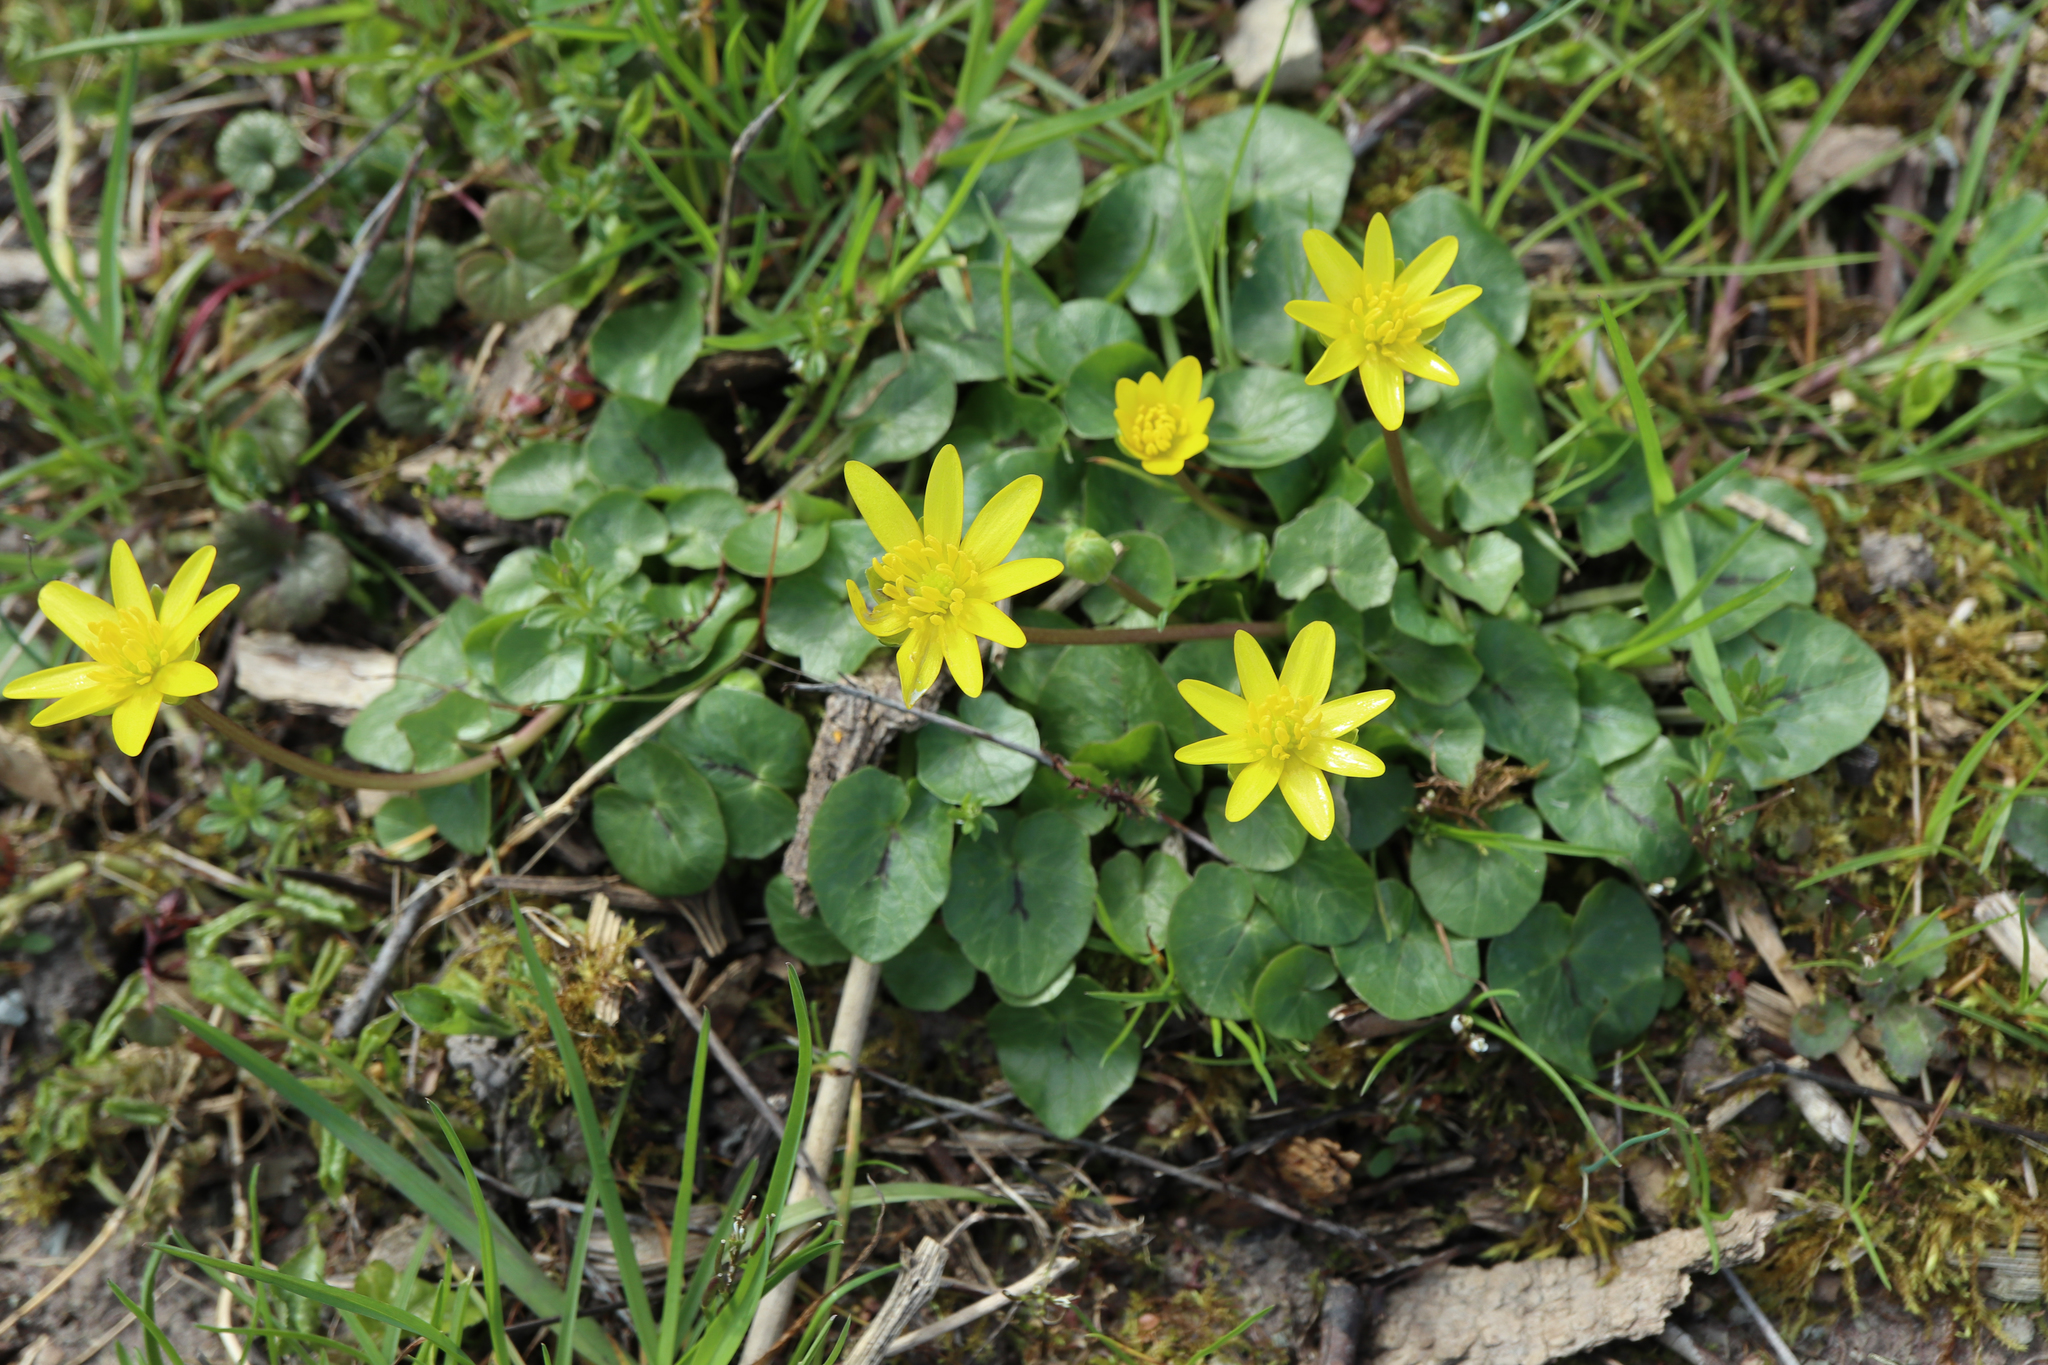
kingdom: Plantae
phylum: Tracheophyta
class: Magnoliopsida
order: Ranunculales
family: Ranunculaceae
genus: Ficaria
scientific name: Ficaria verna
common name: Lesser celandine
